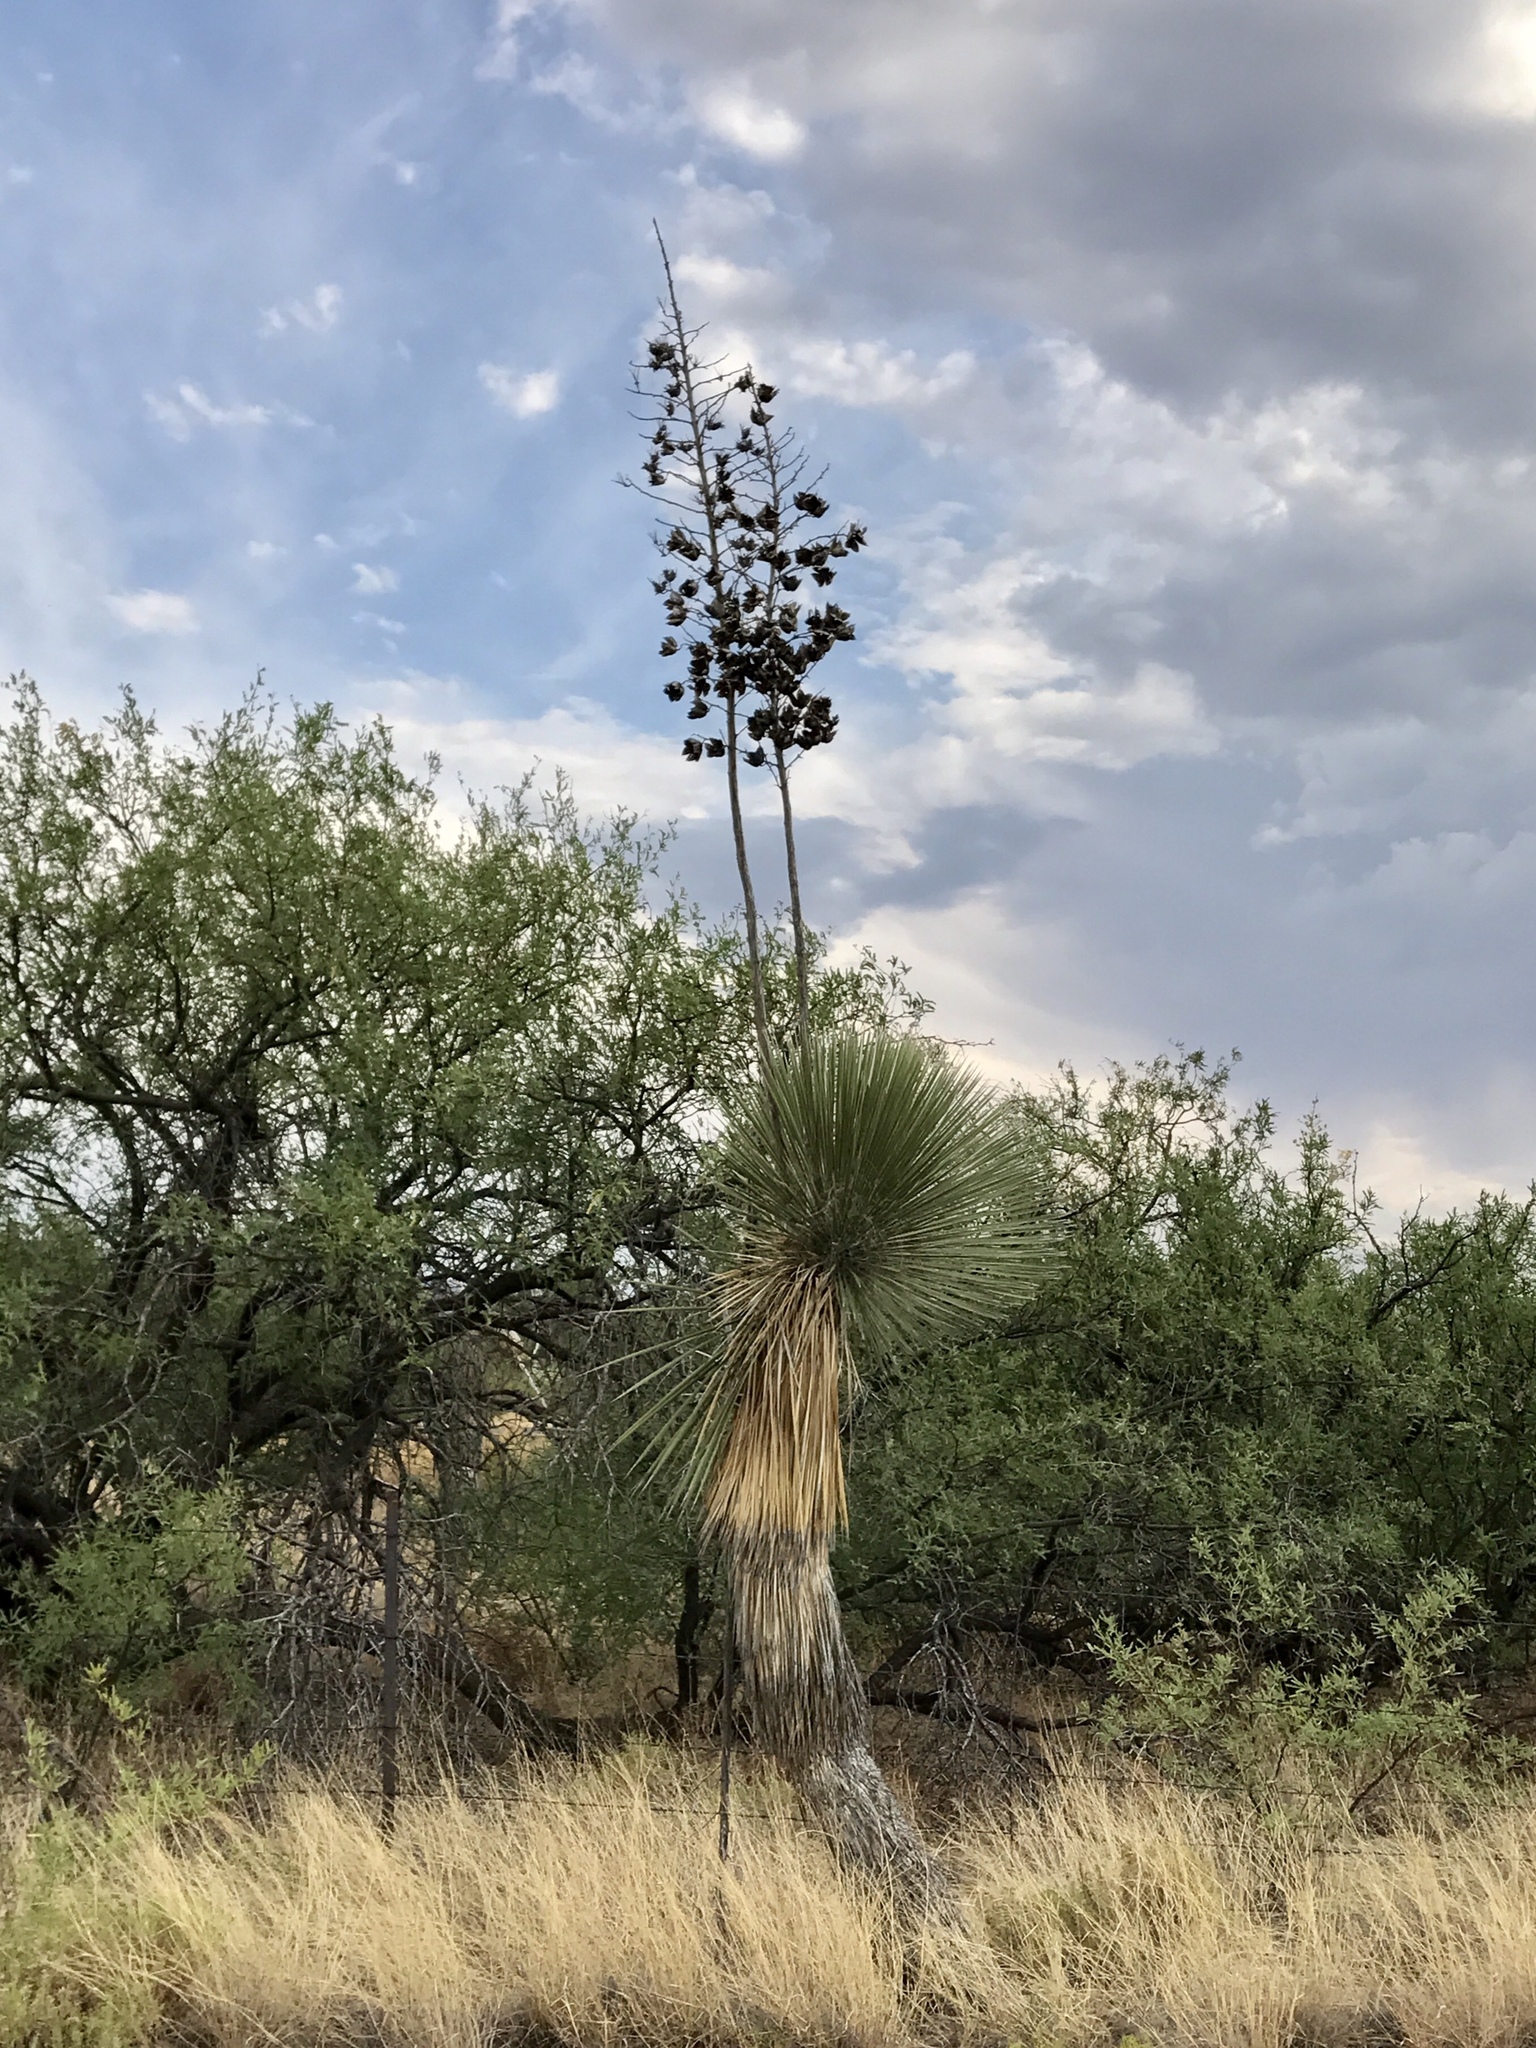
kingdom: Plantae
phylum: Tracheophyta
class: Liliopsida
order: Asparagales
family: Asparagaceae
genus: Yucca
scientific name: Yucca elata
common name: Palmella
